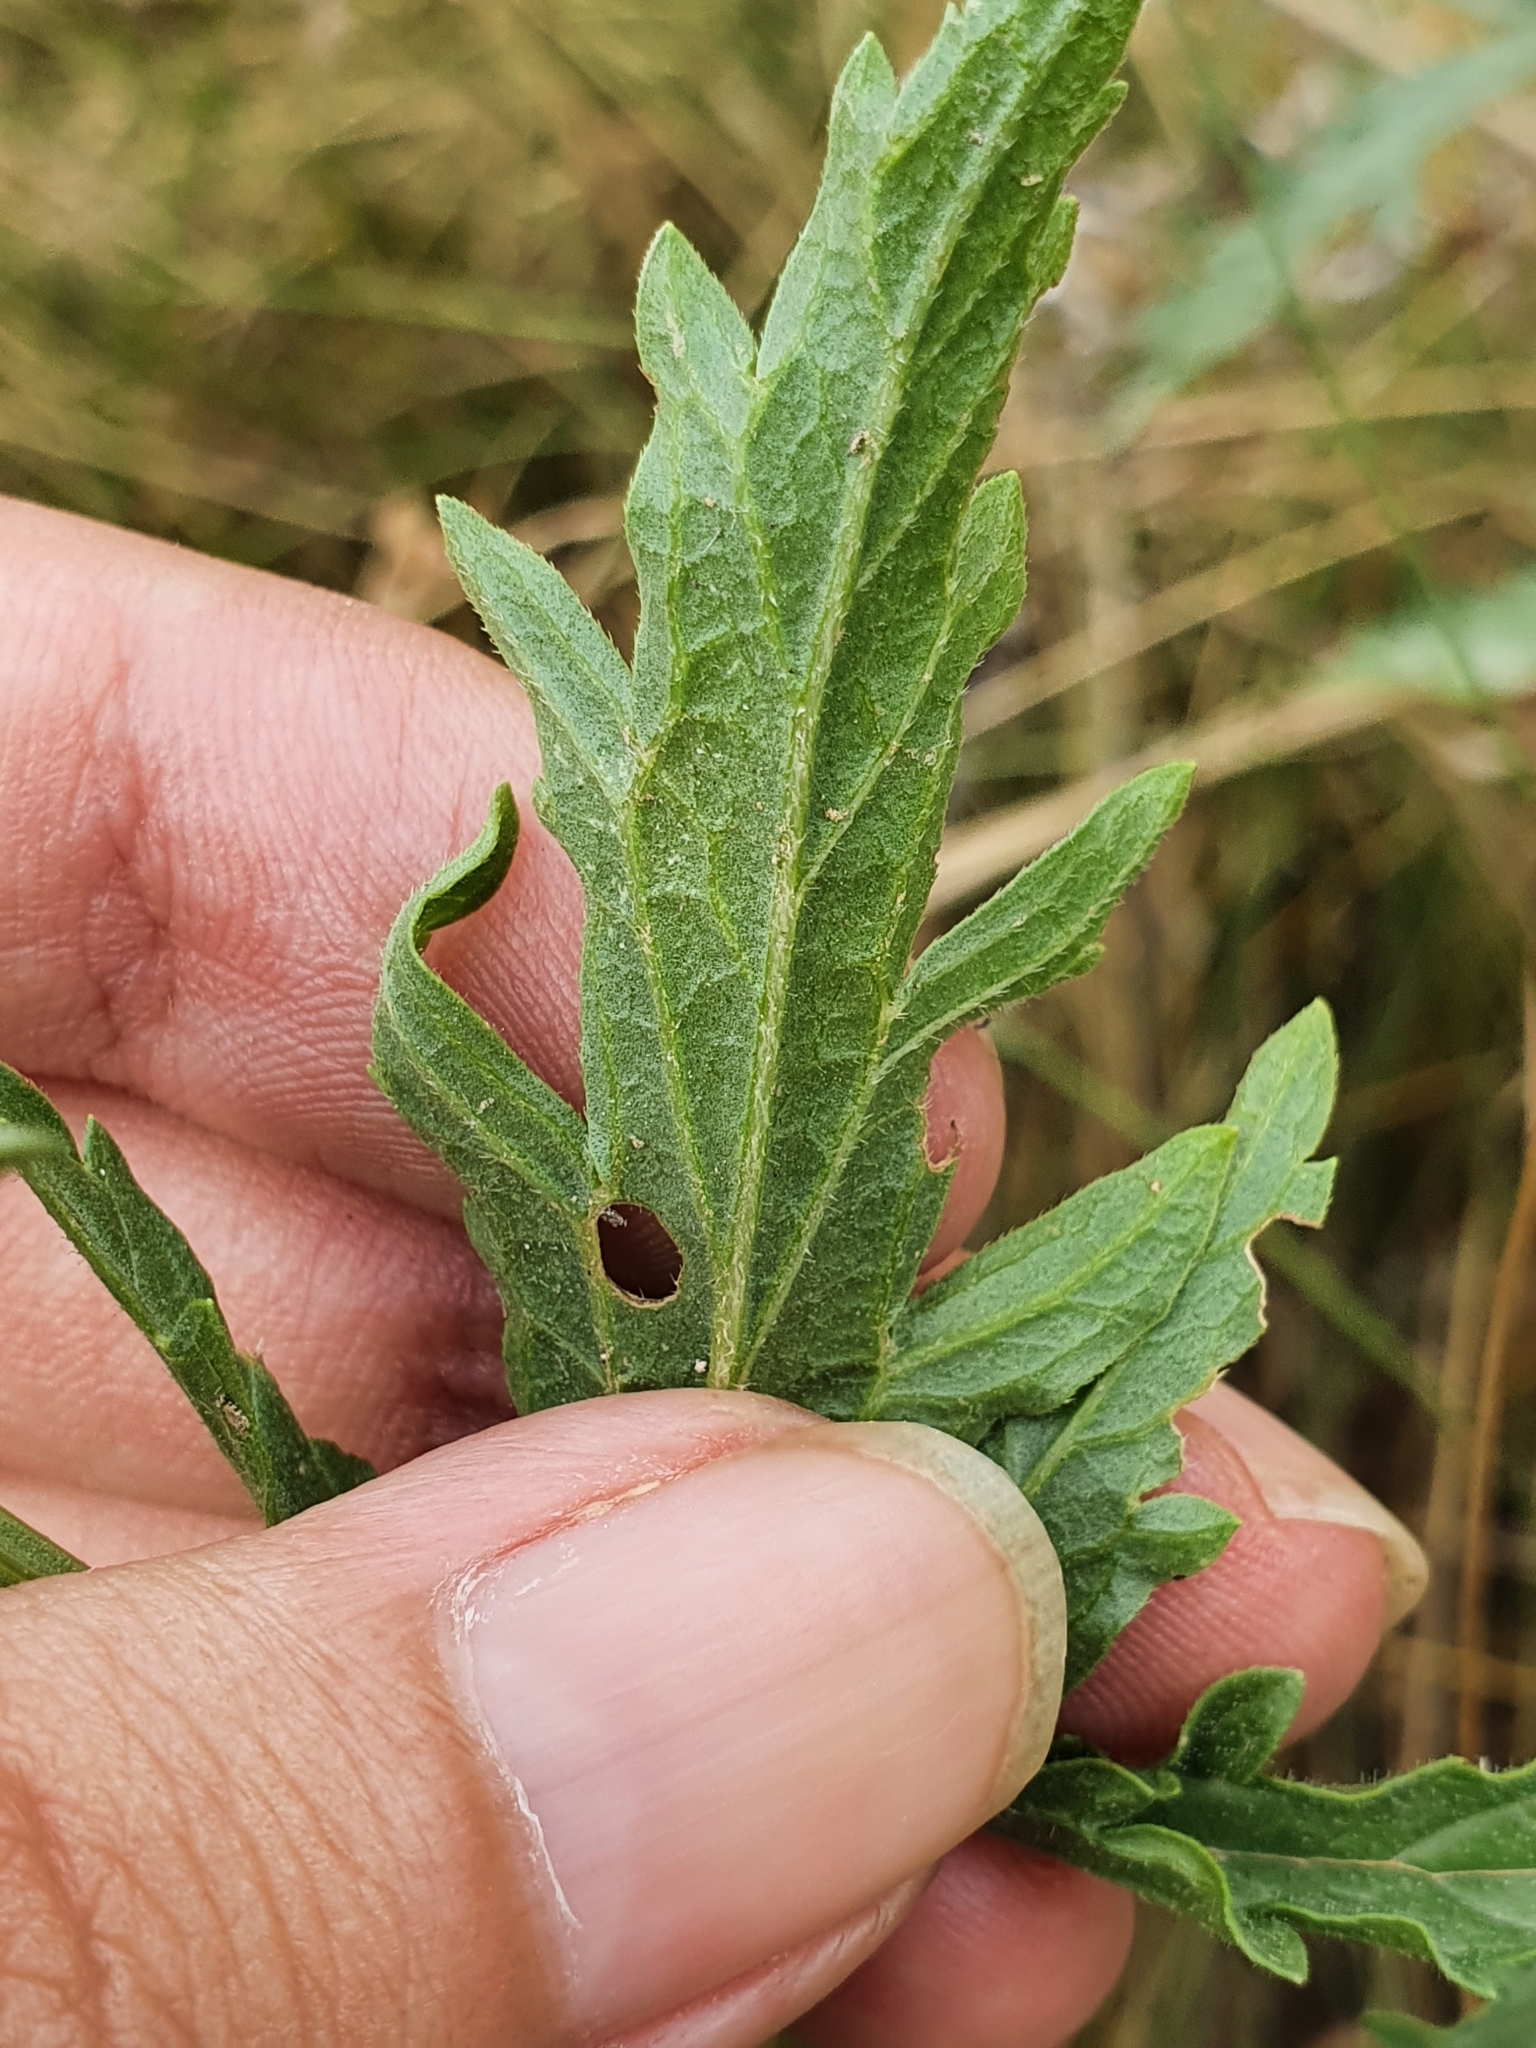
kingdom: Plantae
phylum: Tracheophyta
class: Magnoliopsida
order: Lamiales
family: Verbenaceae
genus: Verbena
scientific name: Verbena officinalis
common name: Vervain
